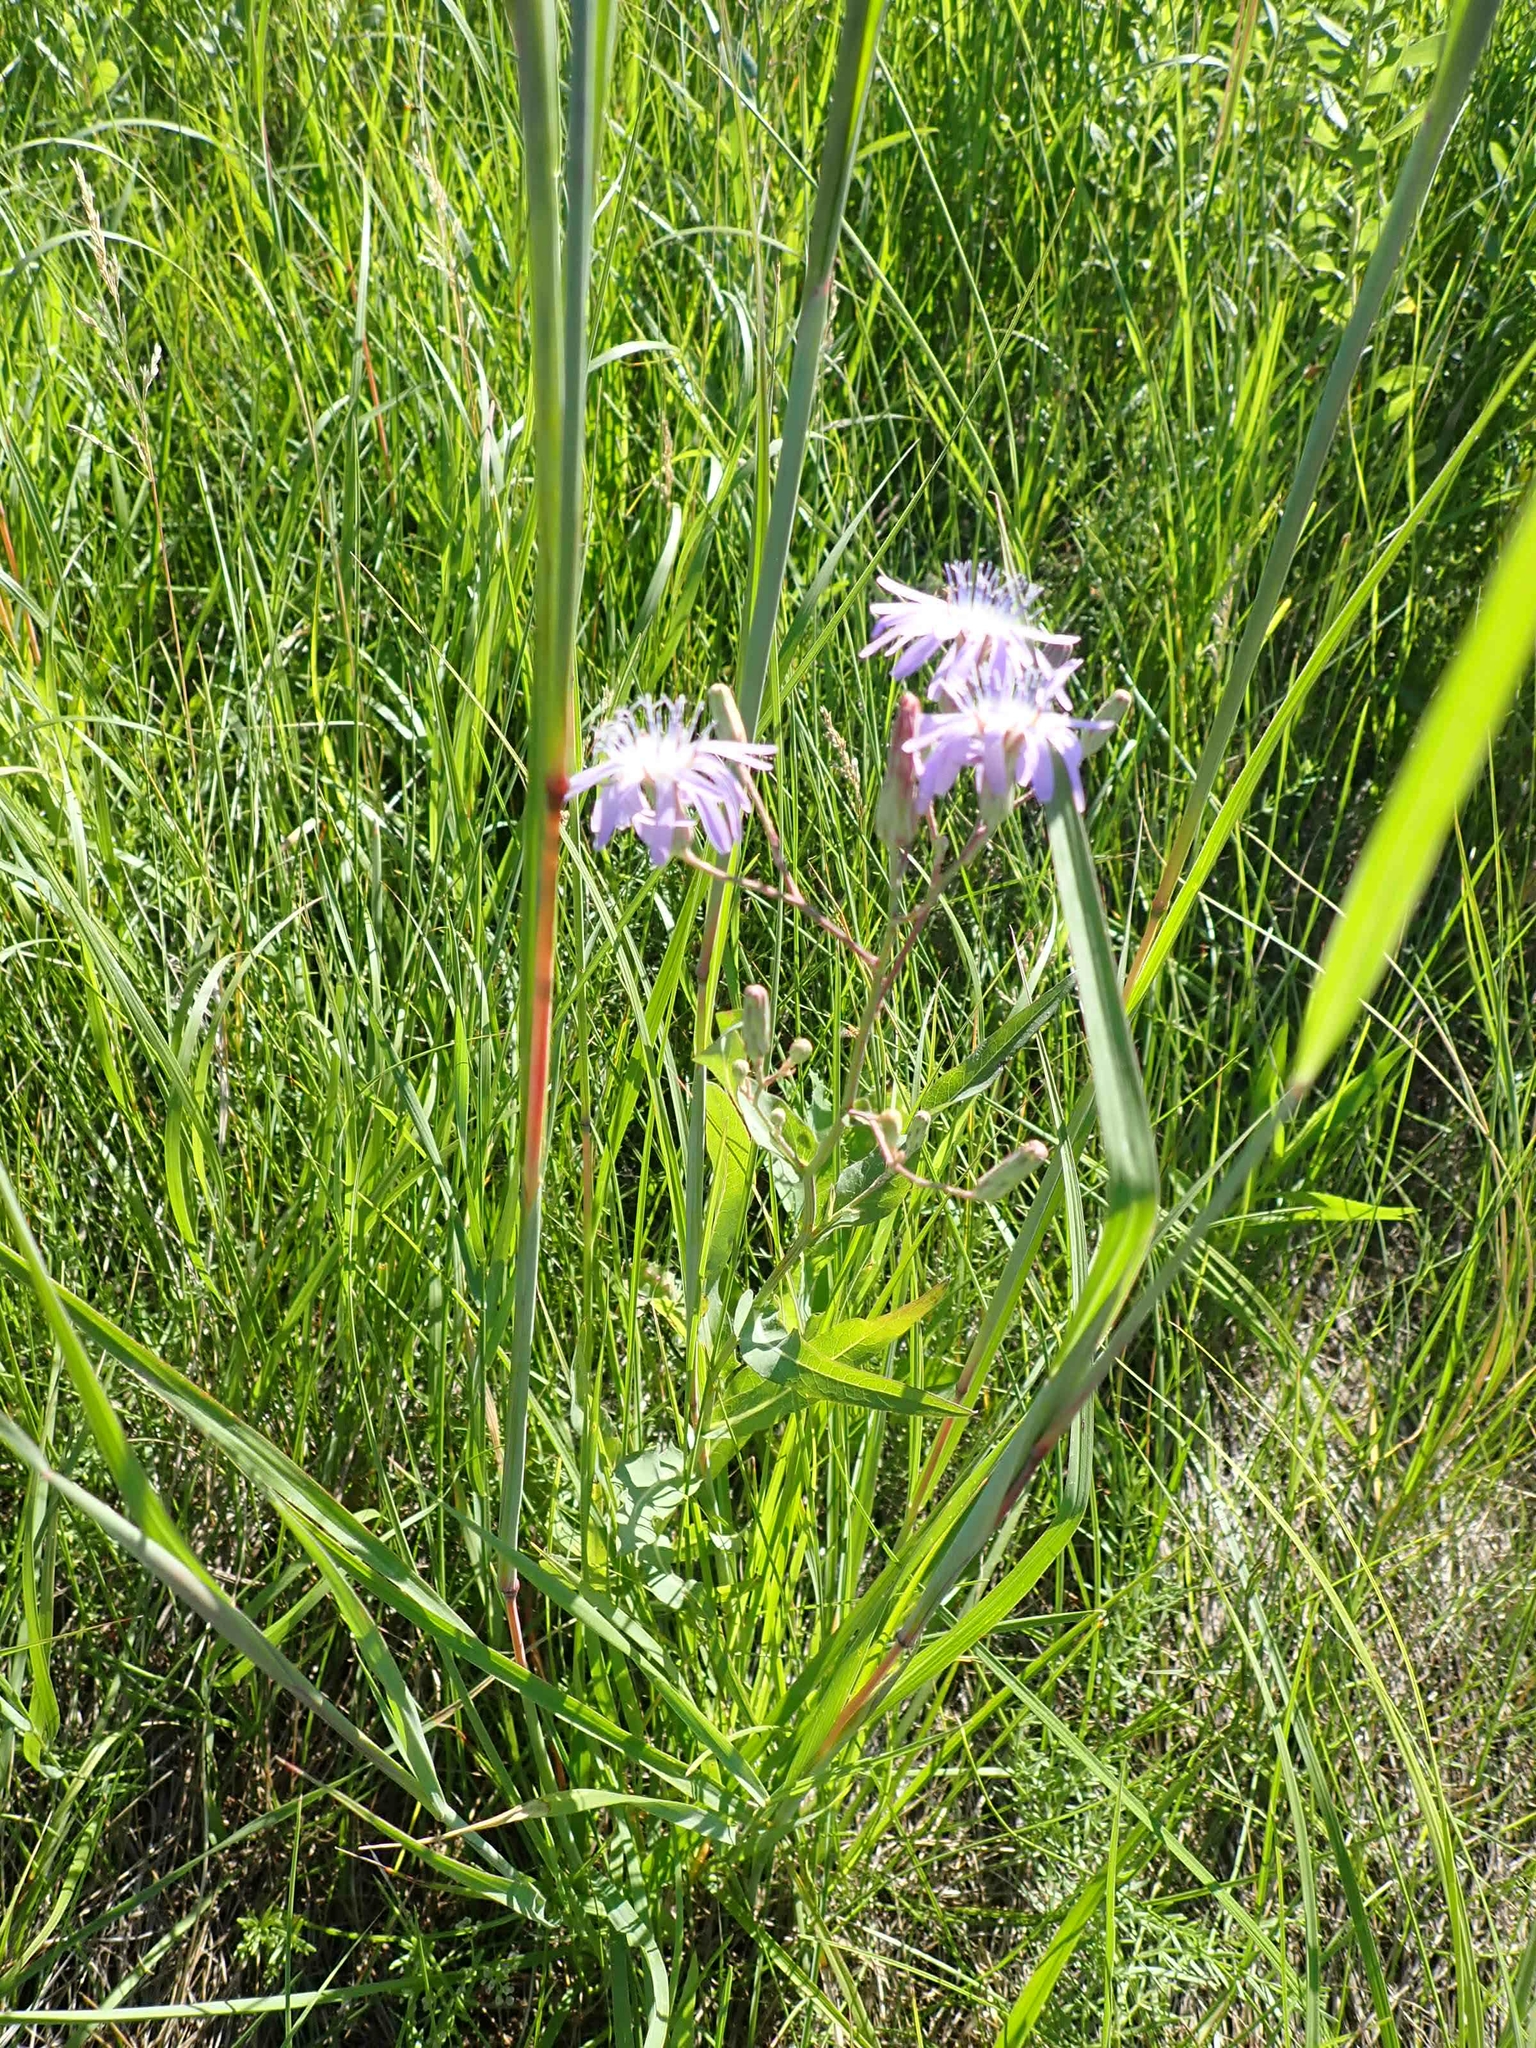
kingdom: Plantae
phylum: Tracheophyta
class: Magnoliopsida
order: Asterales
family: Asteraceae
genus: Lactuca
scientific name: Lactuca pulchella
